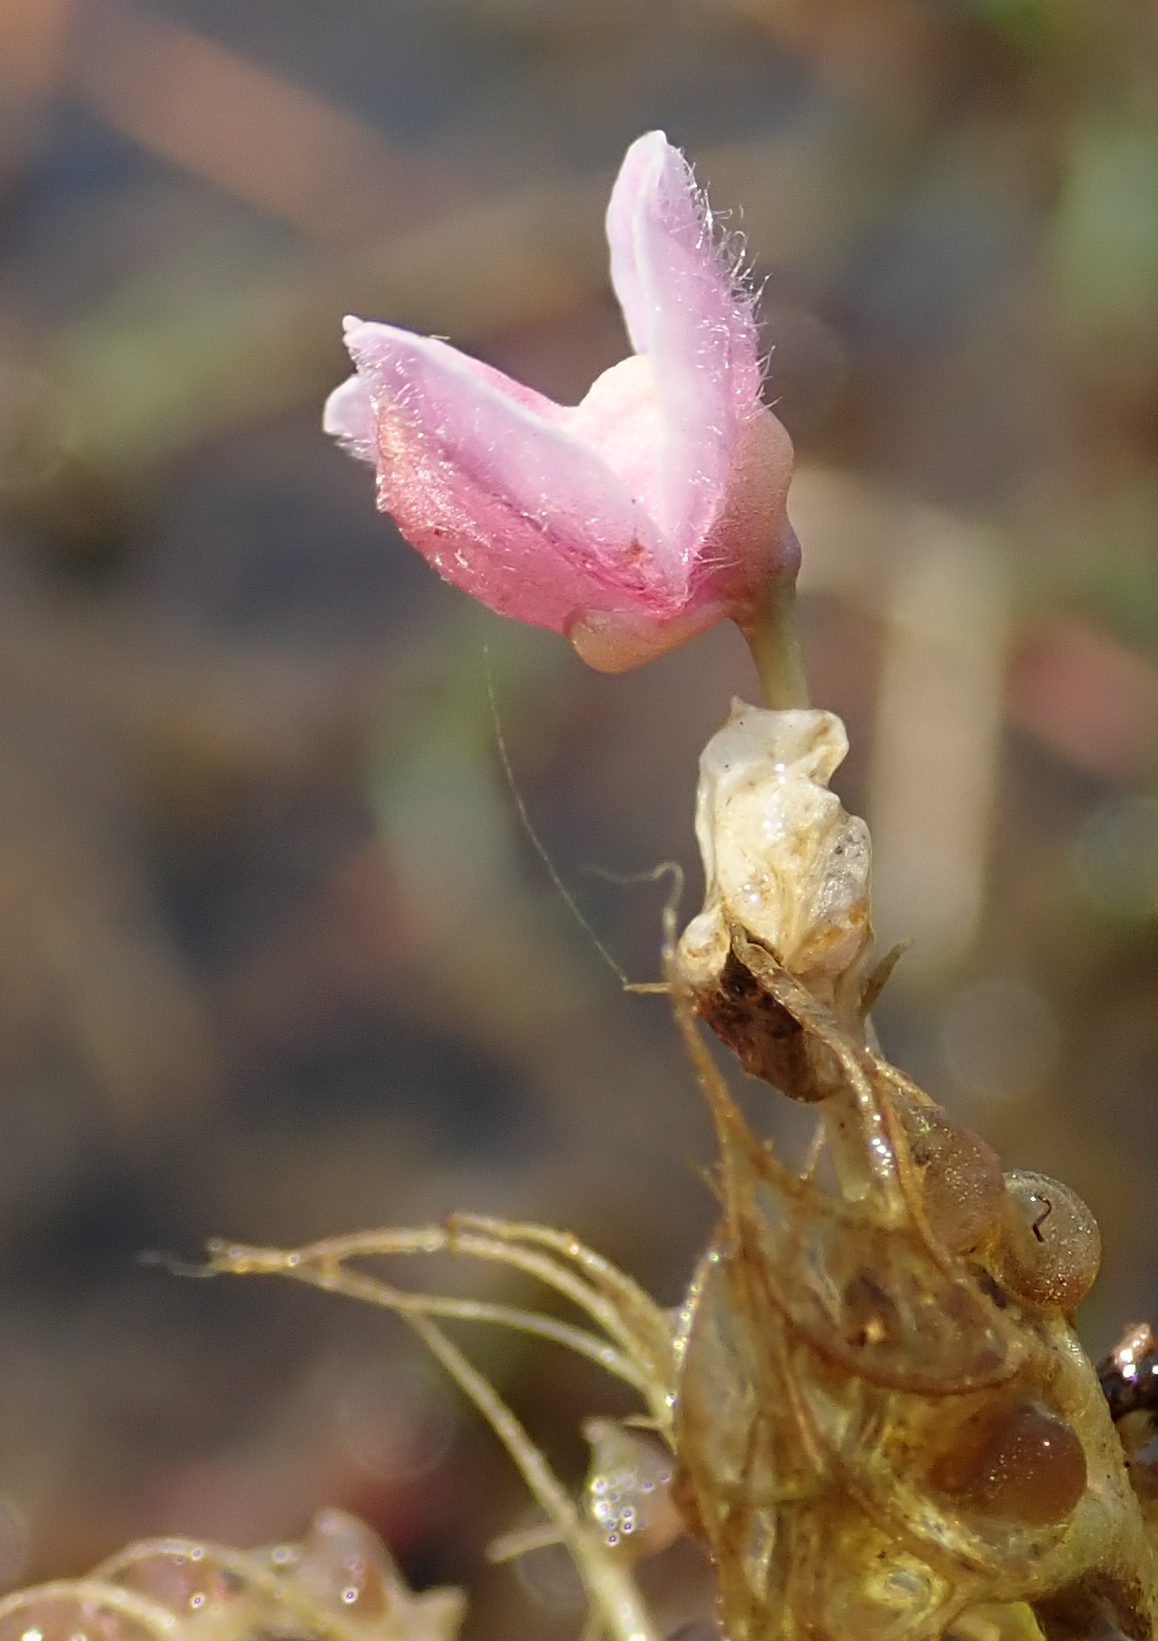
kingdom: Plantae
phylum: Tracheophyta
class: Magnoliopsida
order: Lamiales
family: Lentibulariaceae
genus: Utricularia
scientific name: Utricularia raynalii
